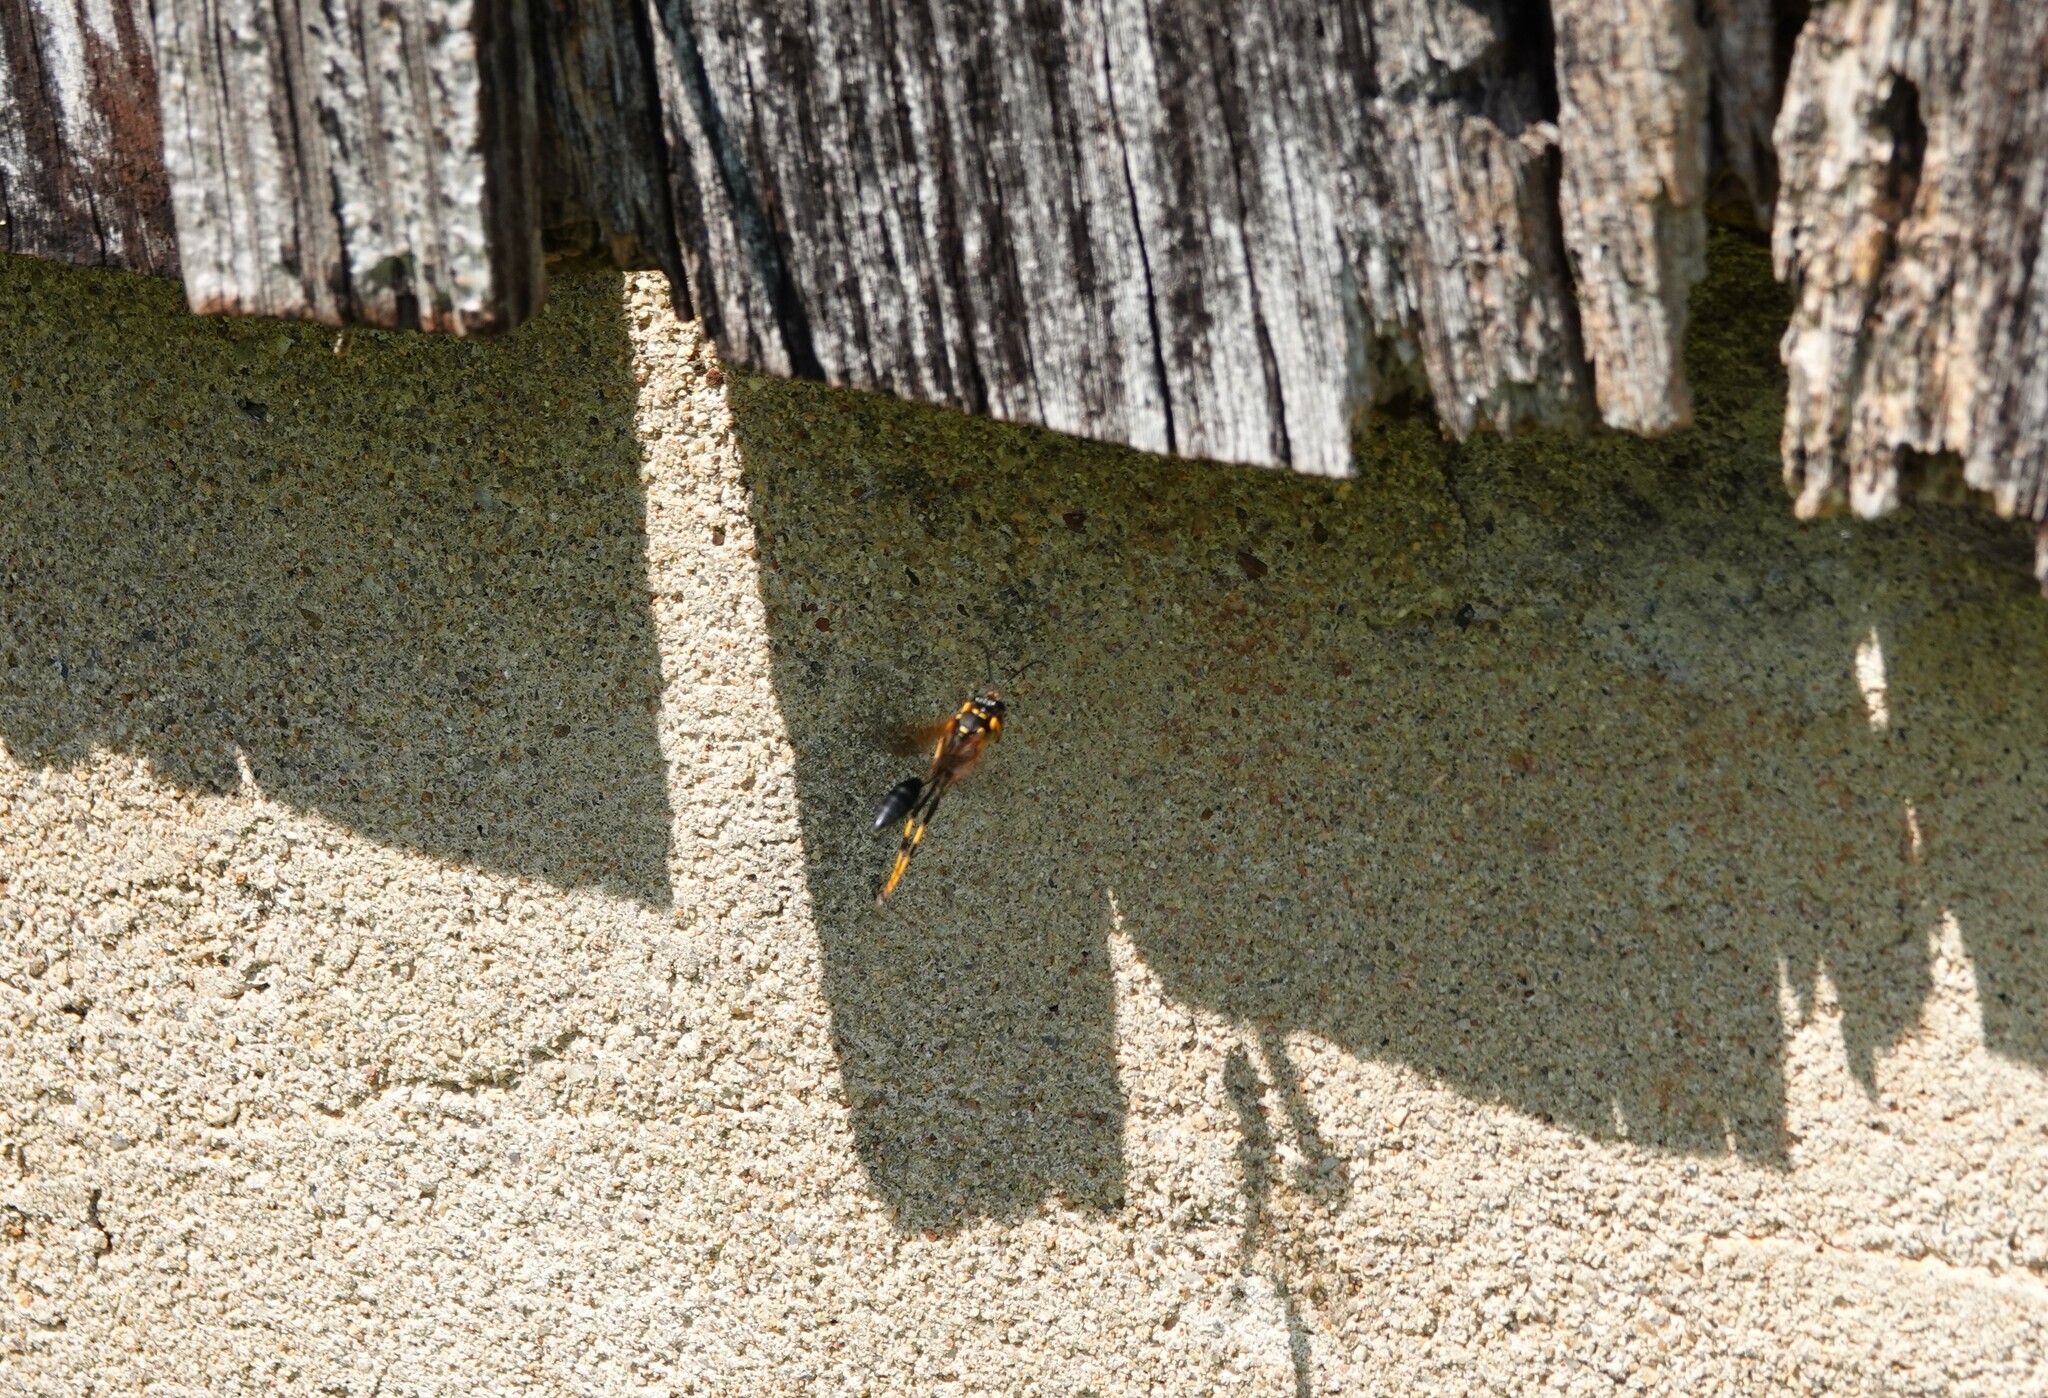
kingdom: Animalia
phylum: Arthropoda
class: Insecta
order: Hymenoptera
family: Sphecidae
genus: Sceliphron
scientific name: Sceliphron caementarium
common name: Mud dauber
